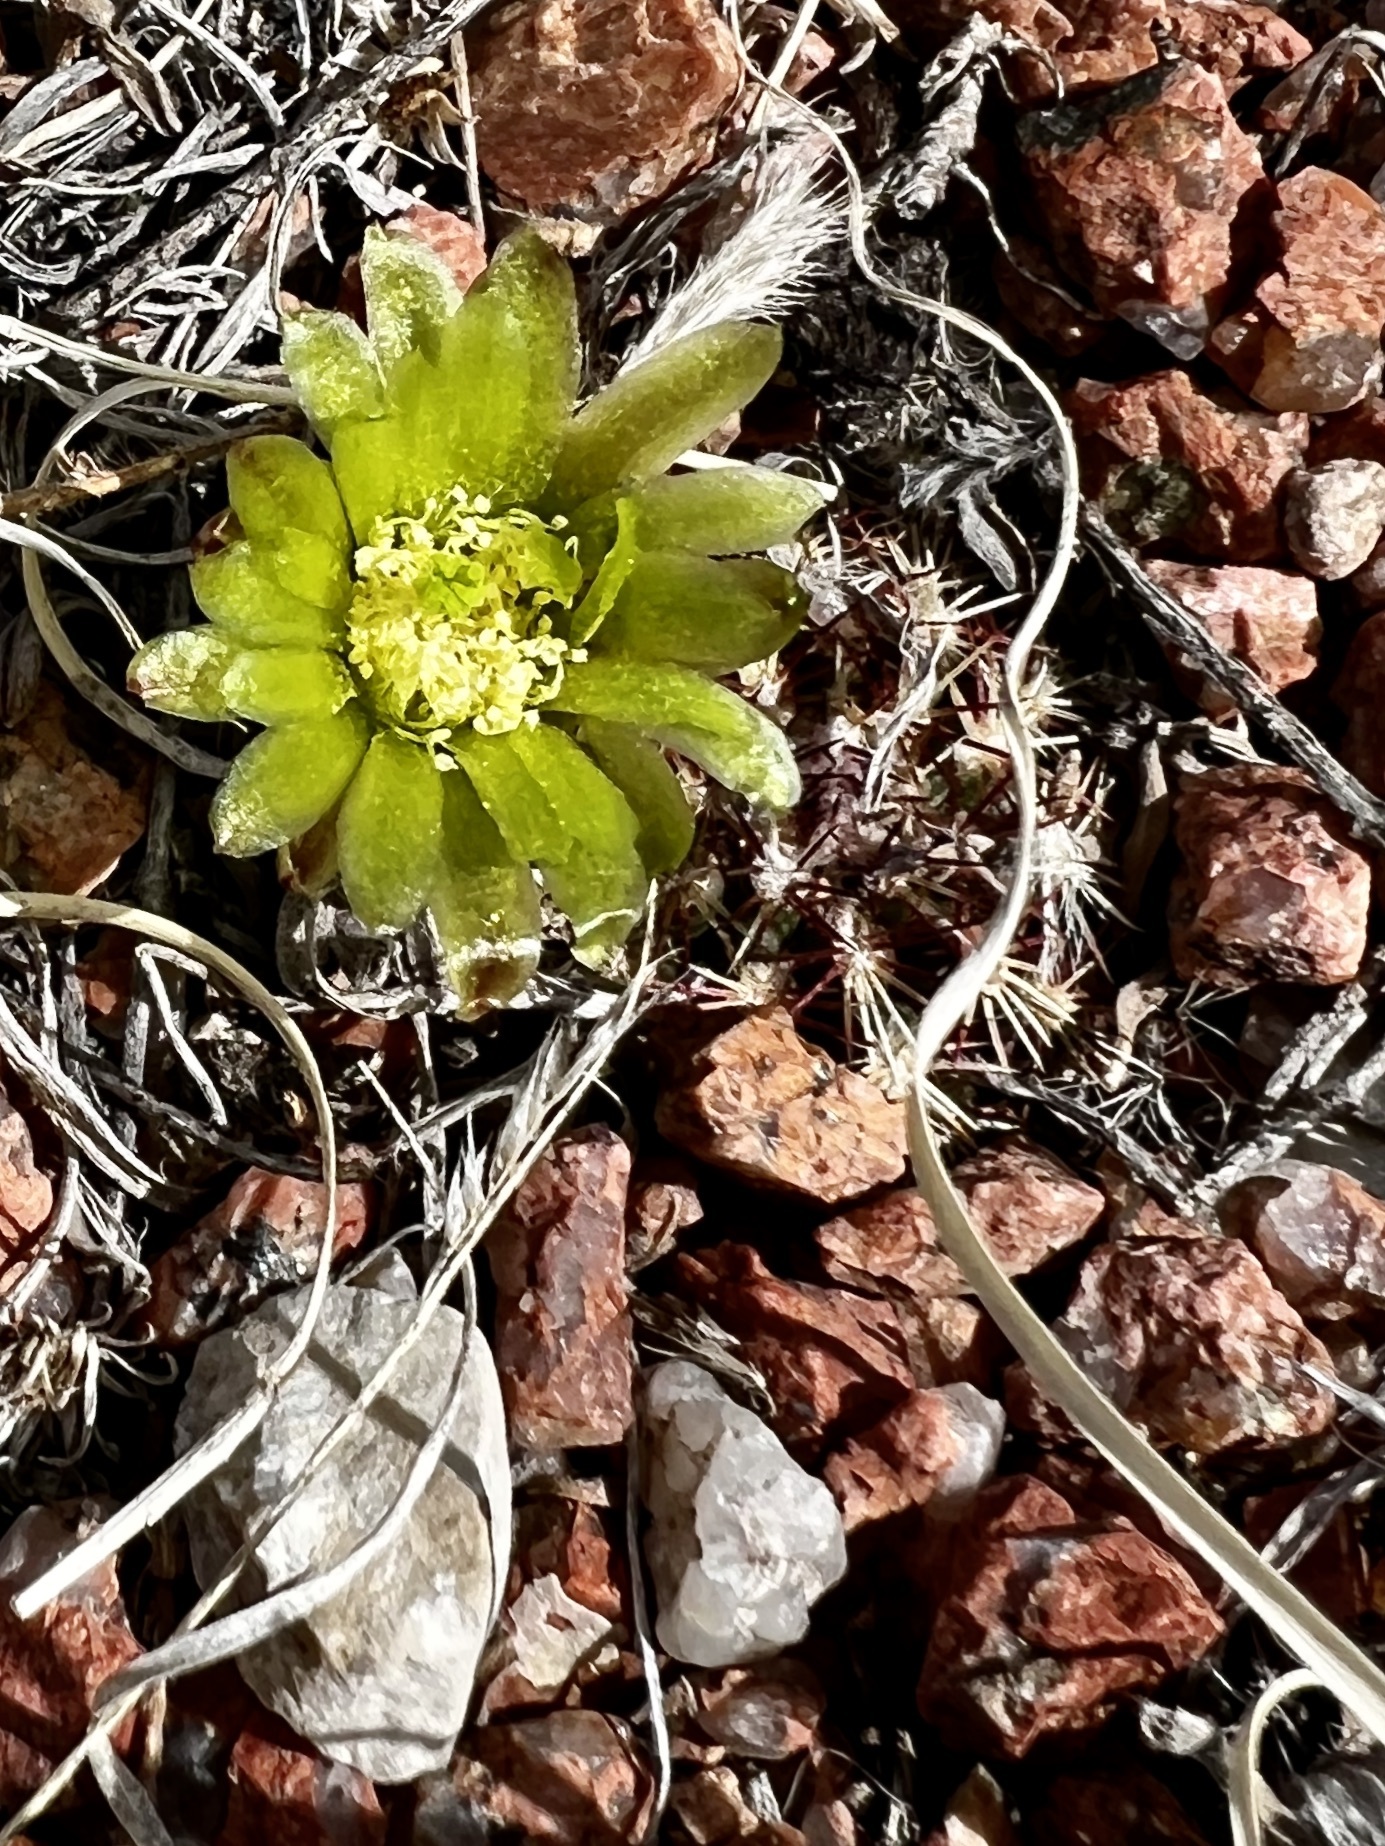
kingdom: Plantae
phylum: Tracheophyta
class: Magnoliopsida
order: Caryophyllales
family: Cactaceae
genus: Echinocereus
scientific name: Echinocereus viridiflorus
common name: Nylon hedgehog cactus
